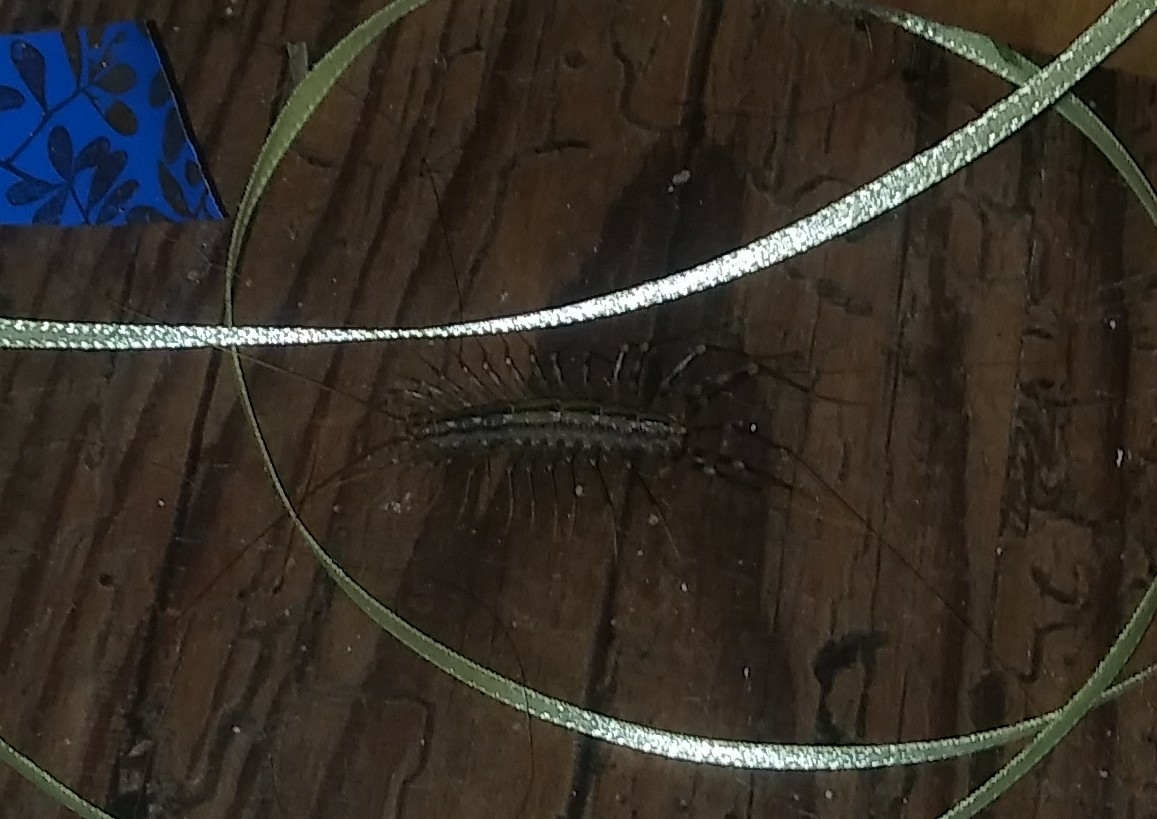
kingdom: Animalia
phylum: Arthropoda
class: Chilopoda
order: Scutigeromorpha
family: Scutigeridae
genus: Scutigera
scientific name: Scutigera coleoptrata
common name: House centipede
